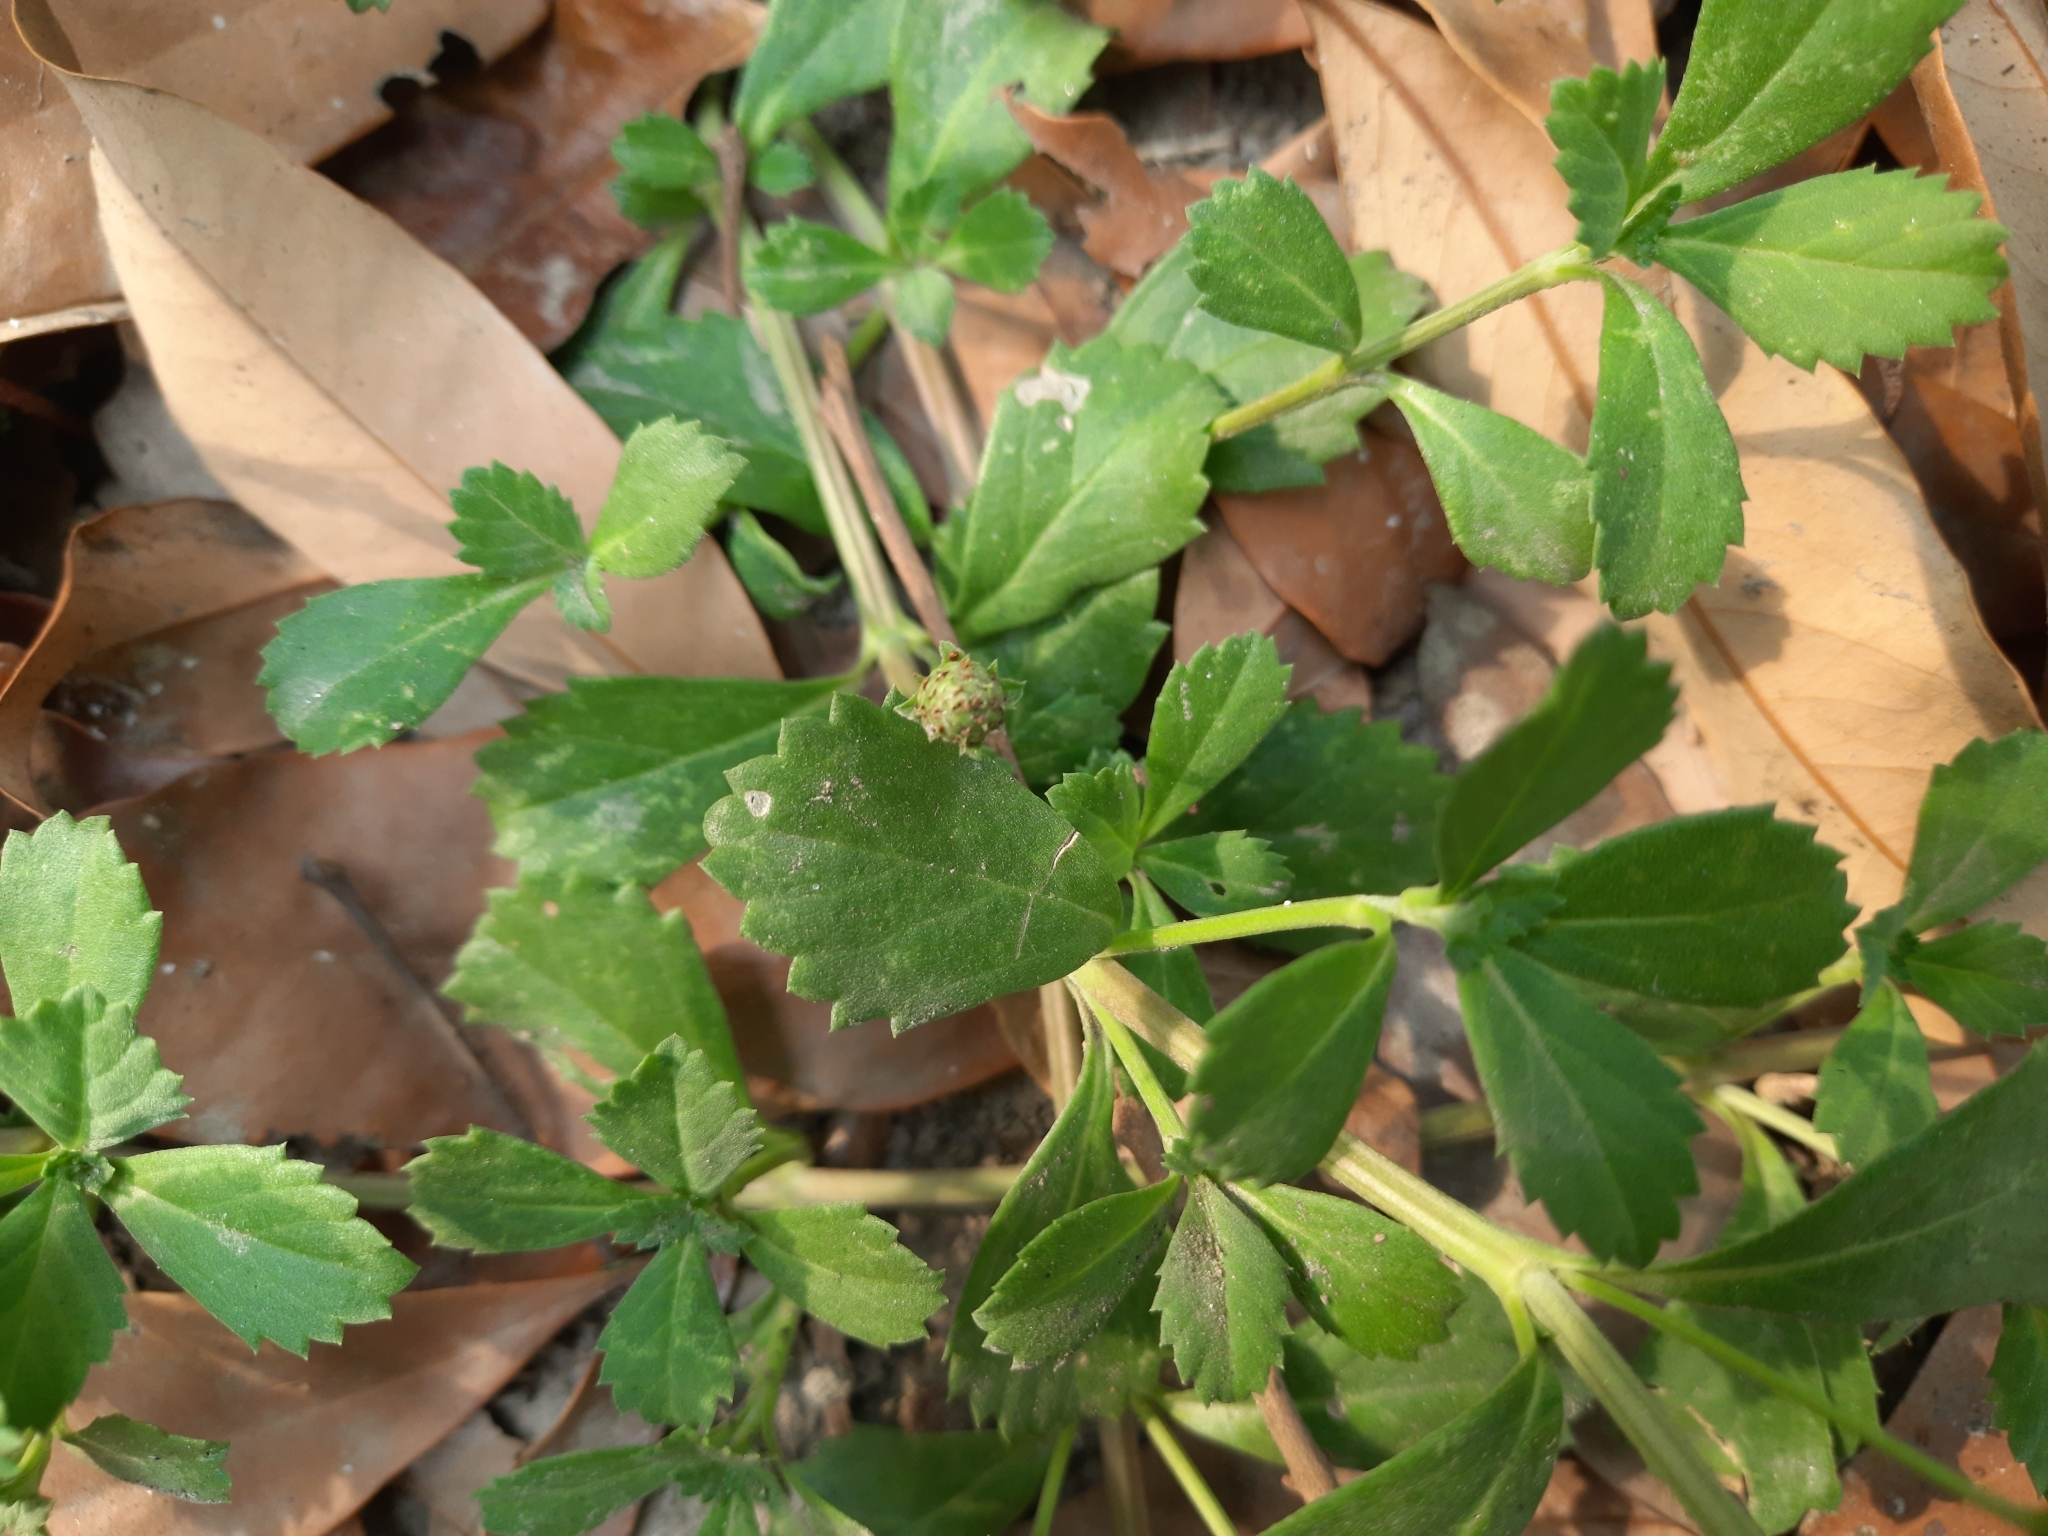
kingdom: Plantae
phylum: Tracheophyta
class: Magnoliopsida
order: Lamiales
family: Verbenaceae
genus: Phyla
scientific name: Phyla nodiflora
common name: Frogfruit
